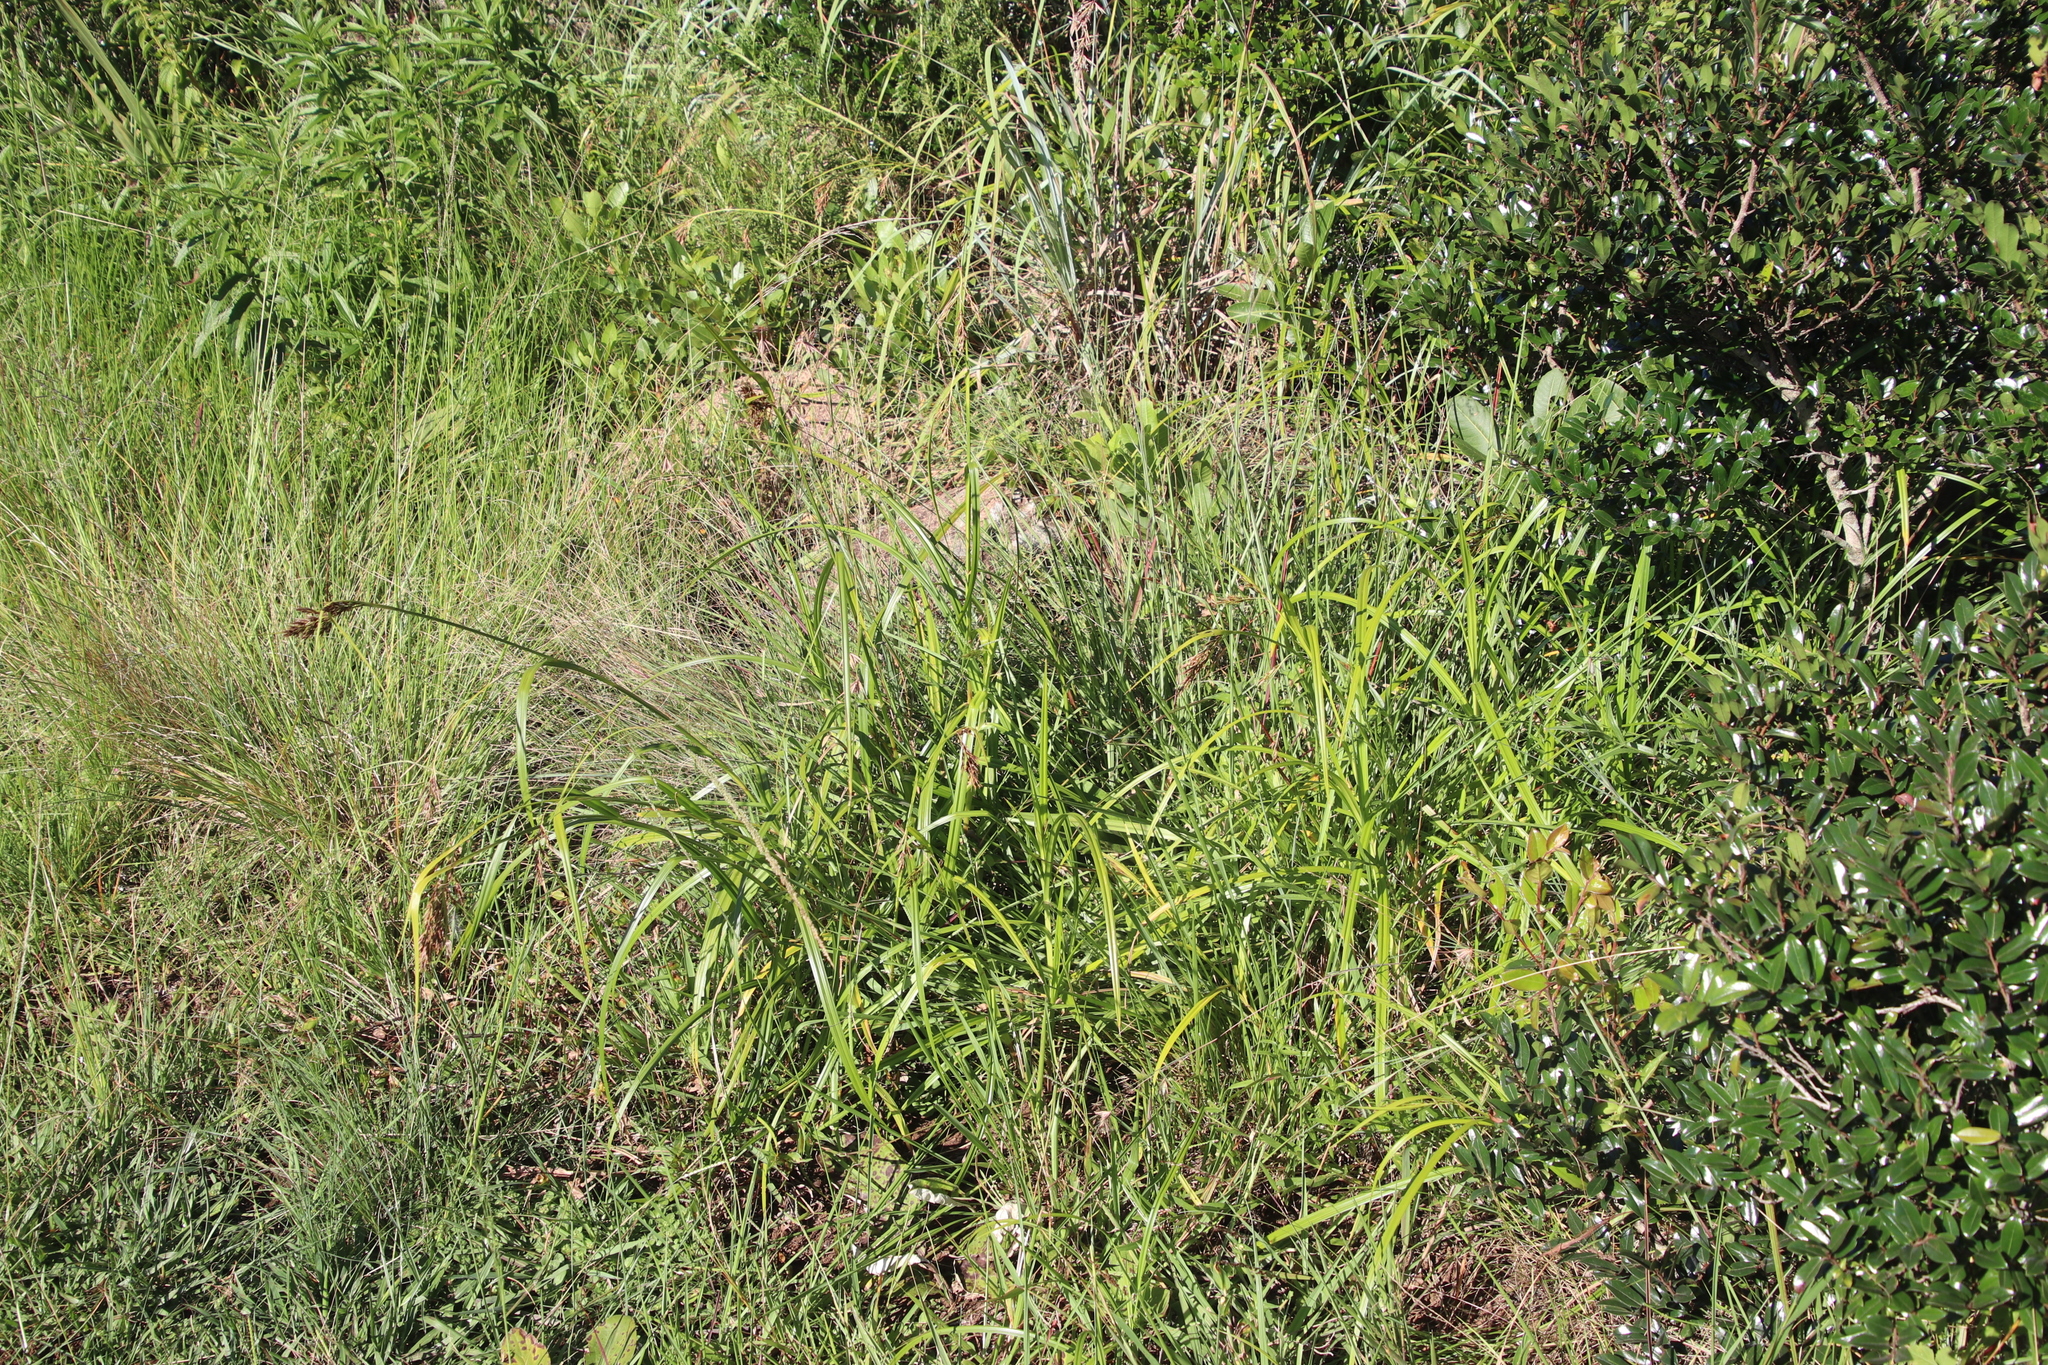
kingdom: Plantae
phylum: Tracheophyta
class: Liliopsida
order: Poales
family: Cyperaceae
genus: Scleria
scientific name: Scleria transvaalensis
